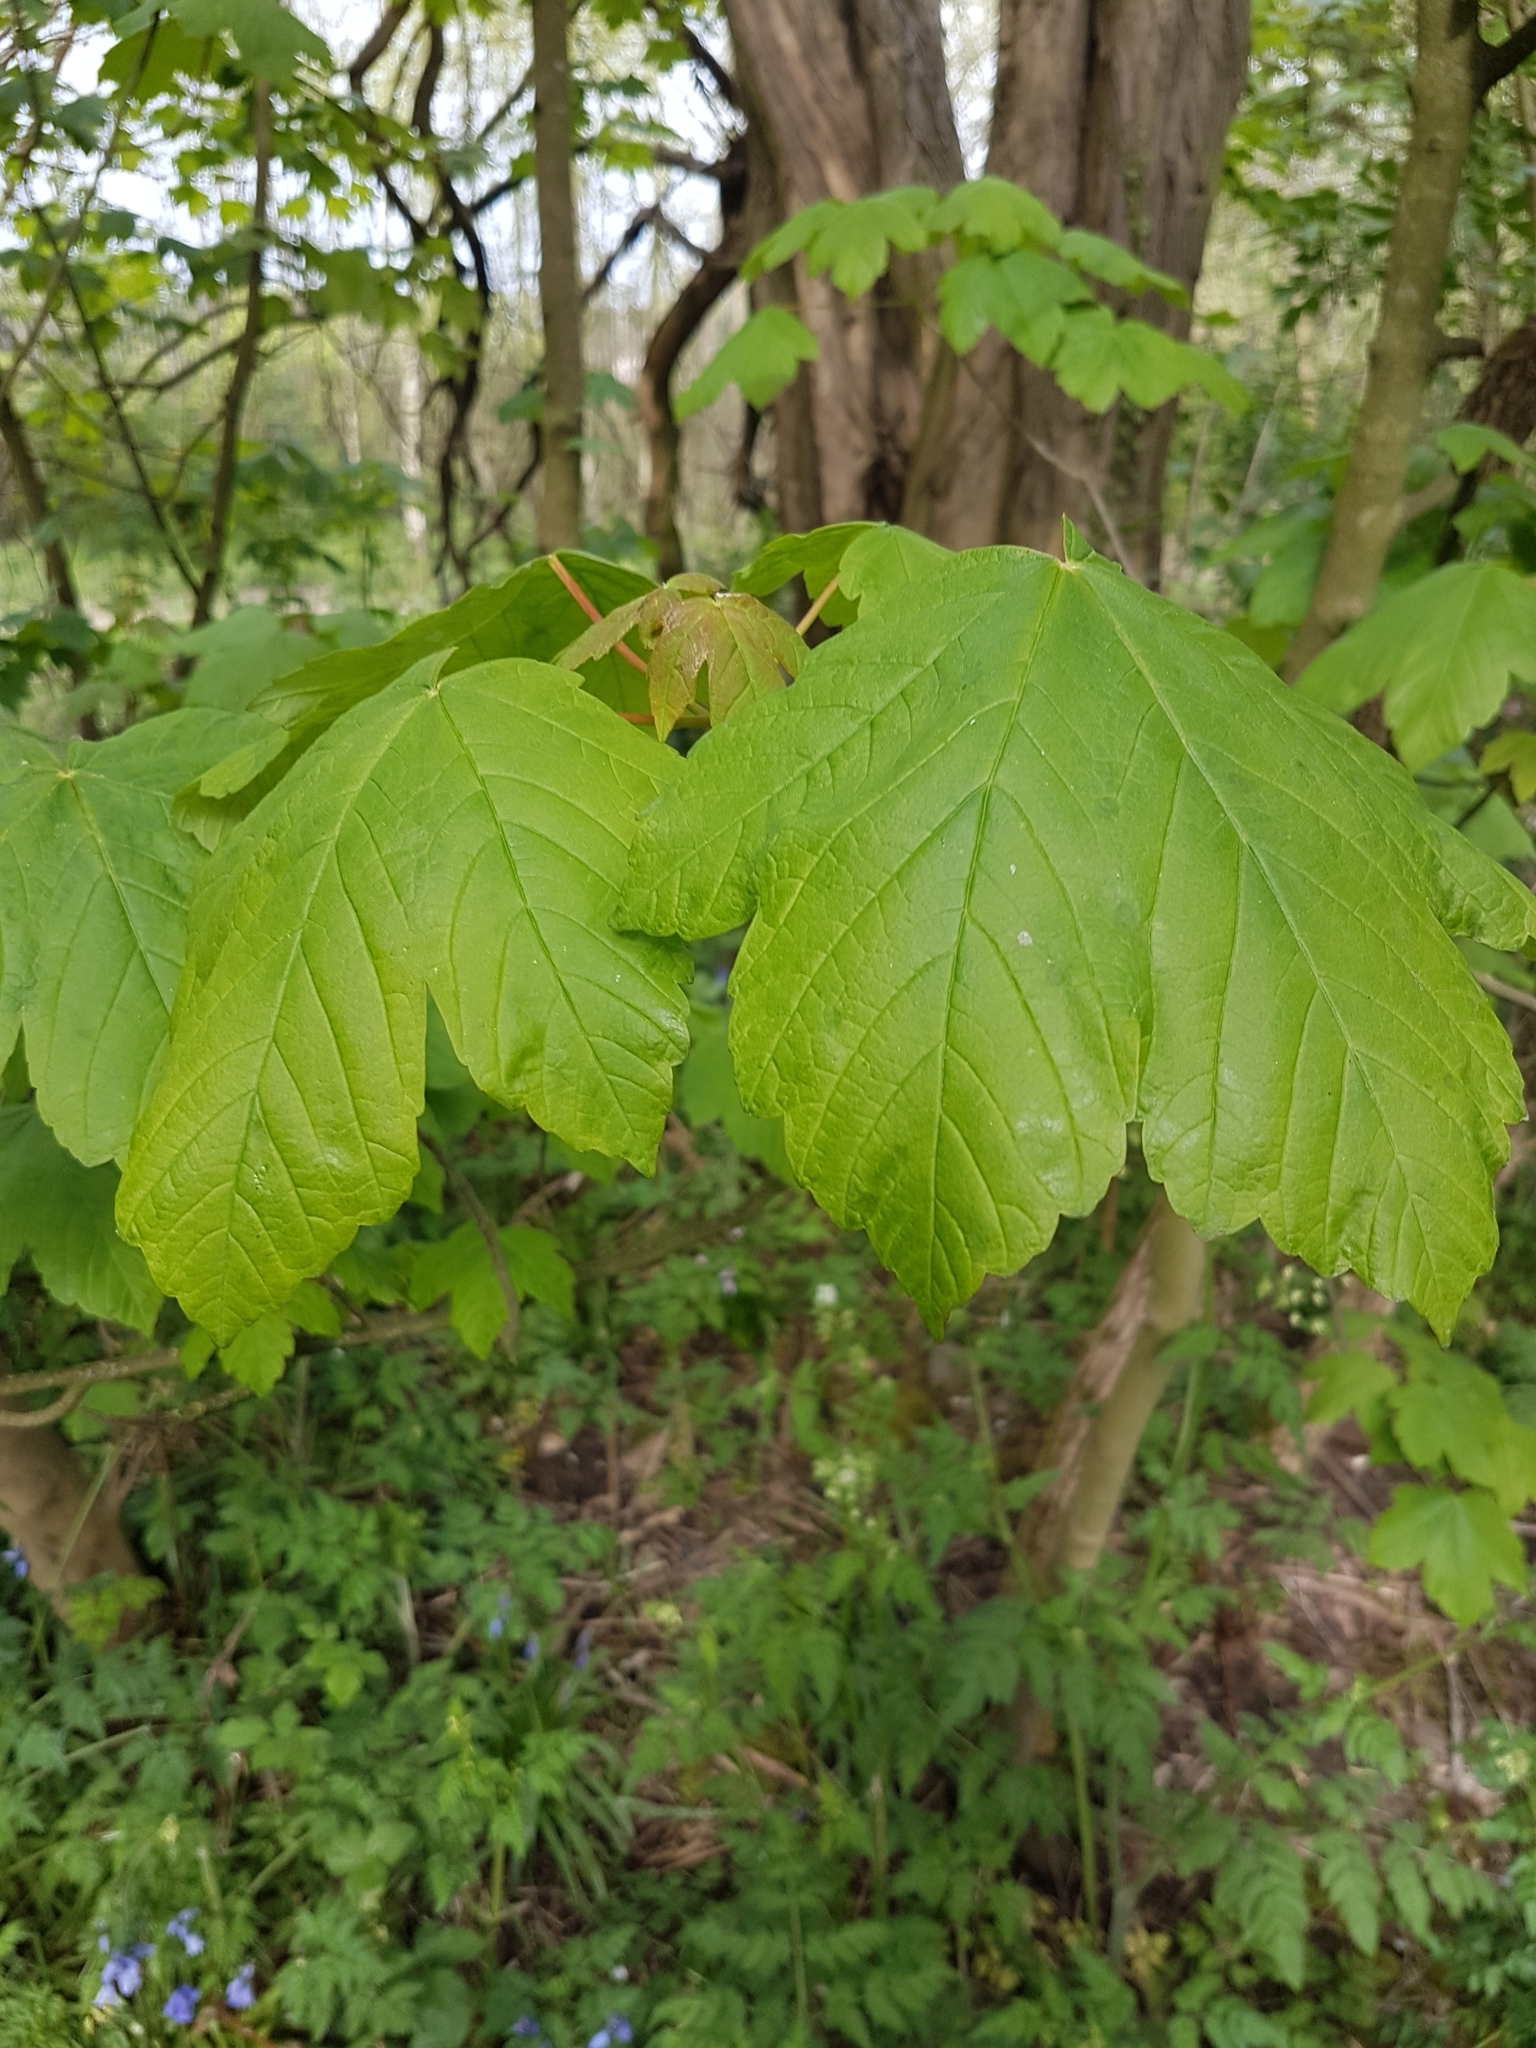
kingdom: Plantae
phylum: Tracheophyta
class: Magnoliopsida
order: Sapindales
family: Sapindaceae
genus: Acer
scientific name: Acer pseudoplatanus
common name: Sycamore
